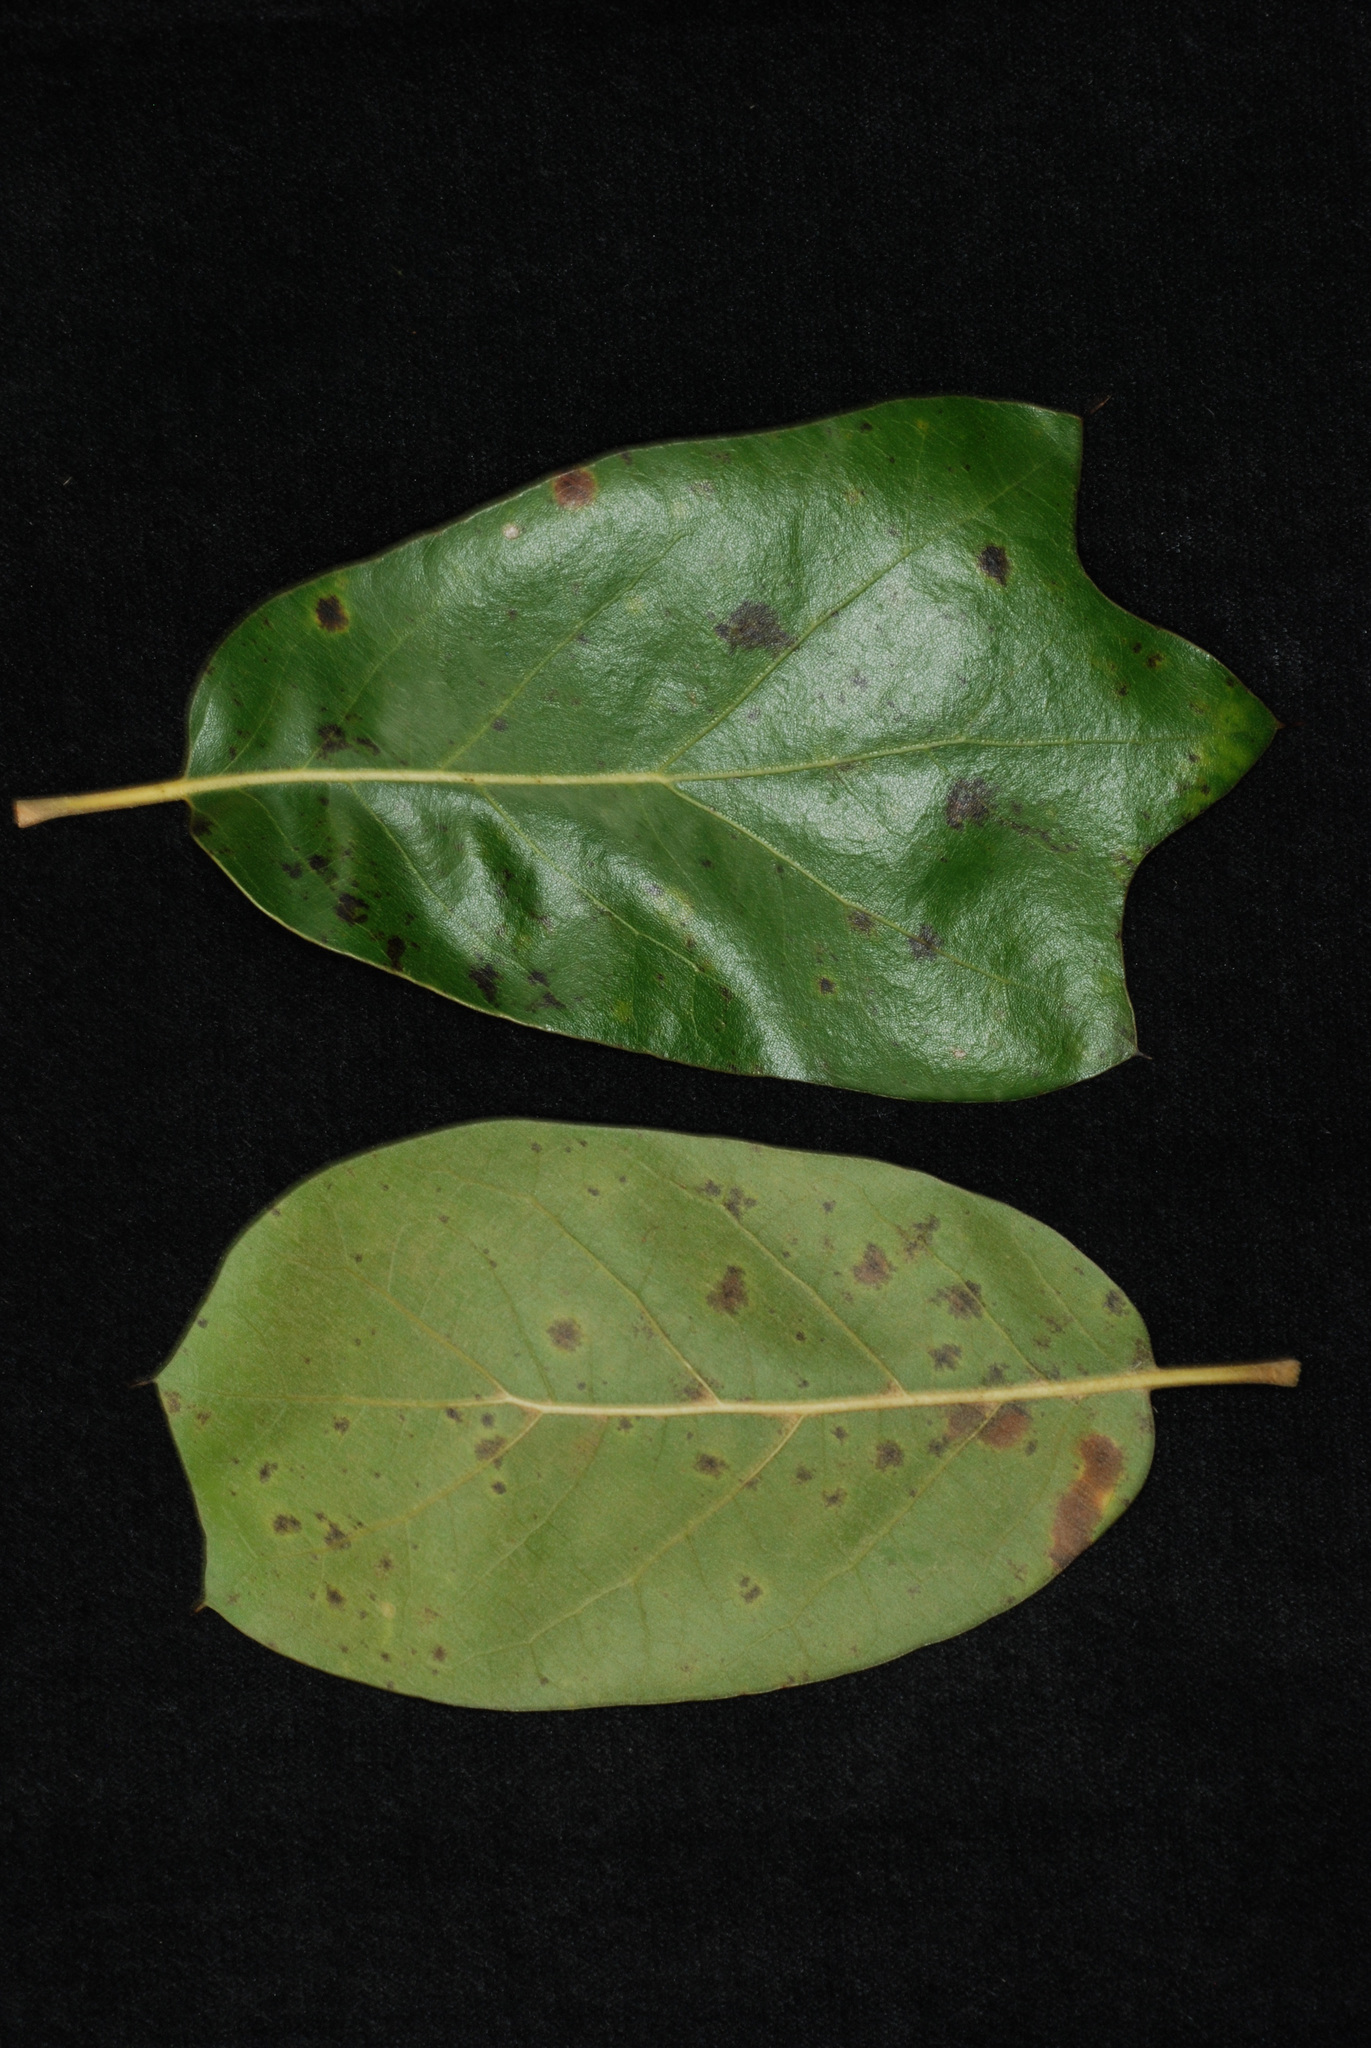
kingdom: Plantae
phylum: Tracheophyta
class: Magnoliopsida
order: Fagales
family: Fagaceae
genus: Quercus
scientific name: Quercus cravenensis
